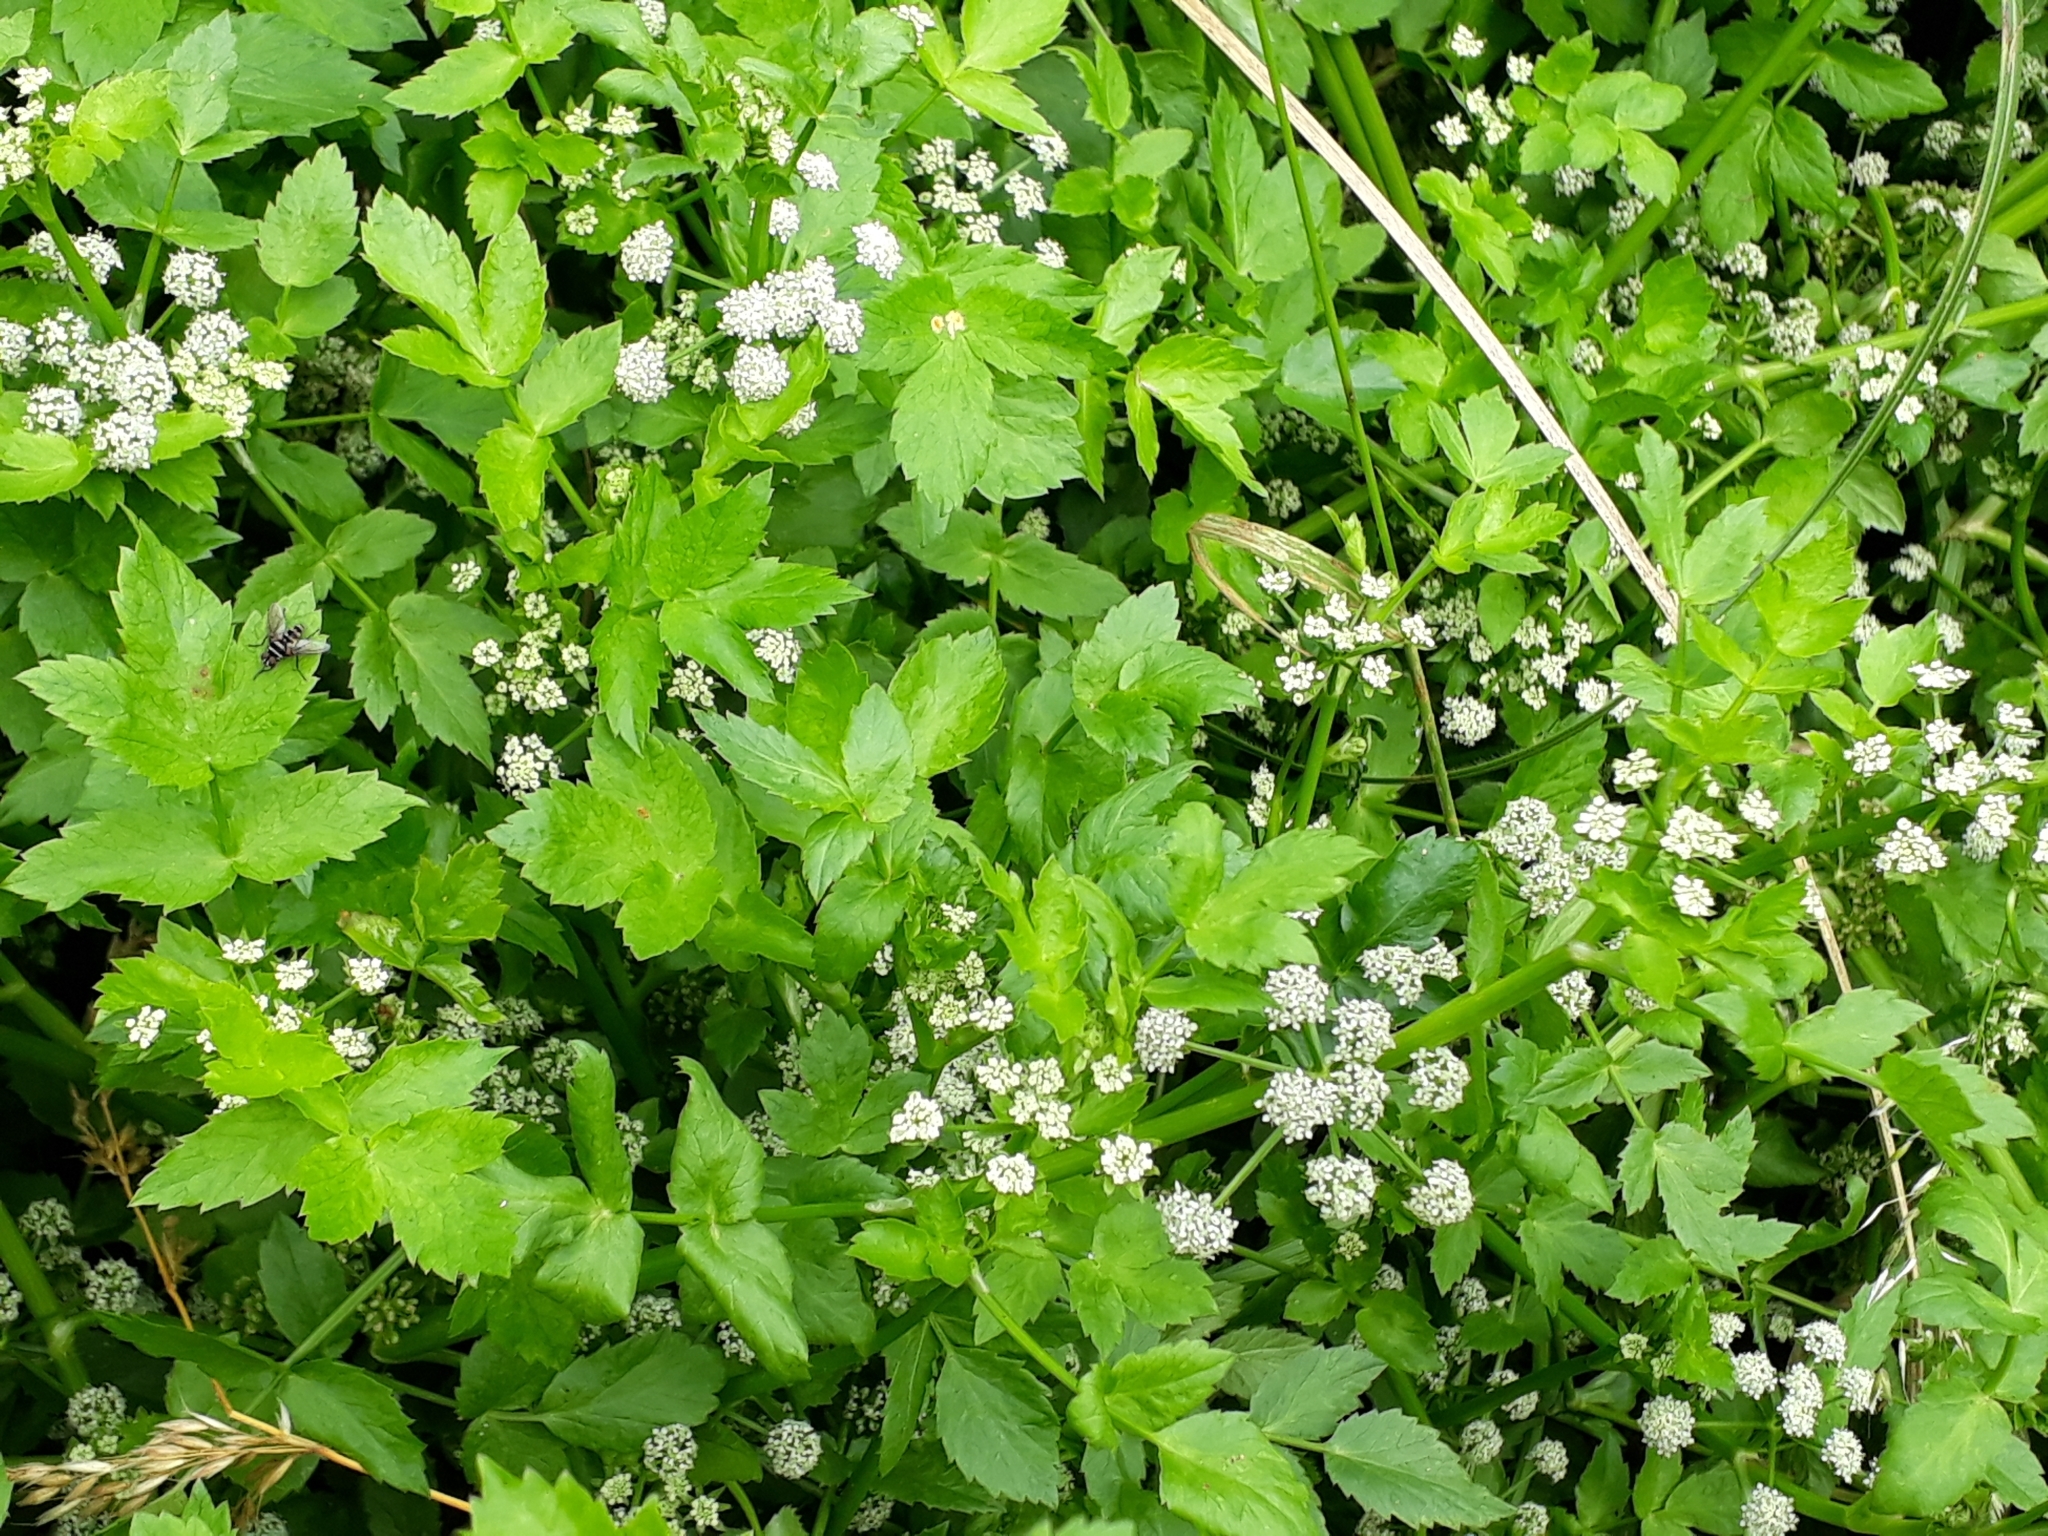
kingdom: Plantae
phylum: Tracheophyta
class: Magnoliopsida
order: Apiales
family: Apiaceae
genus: Helosciadium
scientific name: Helosciadium nodiflorum
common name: Fool's-watercress
